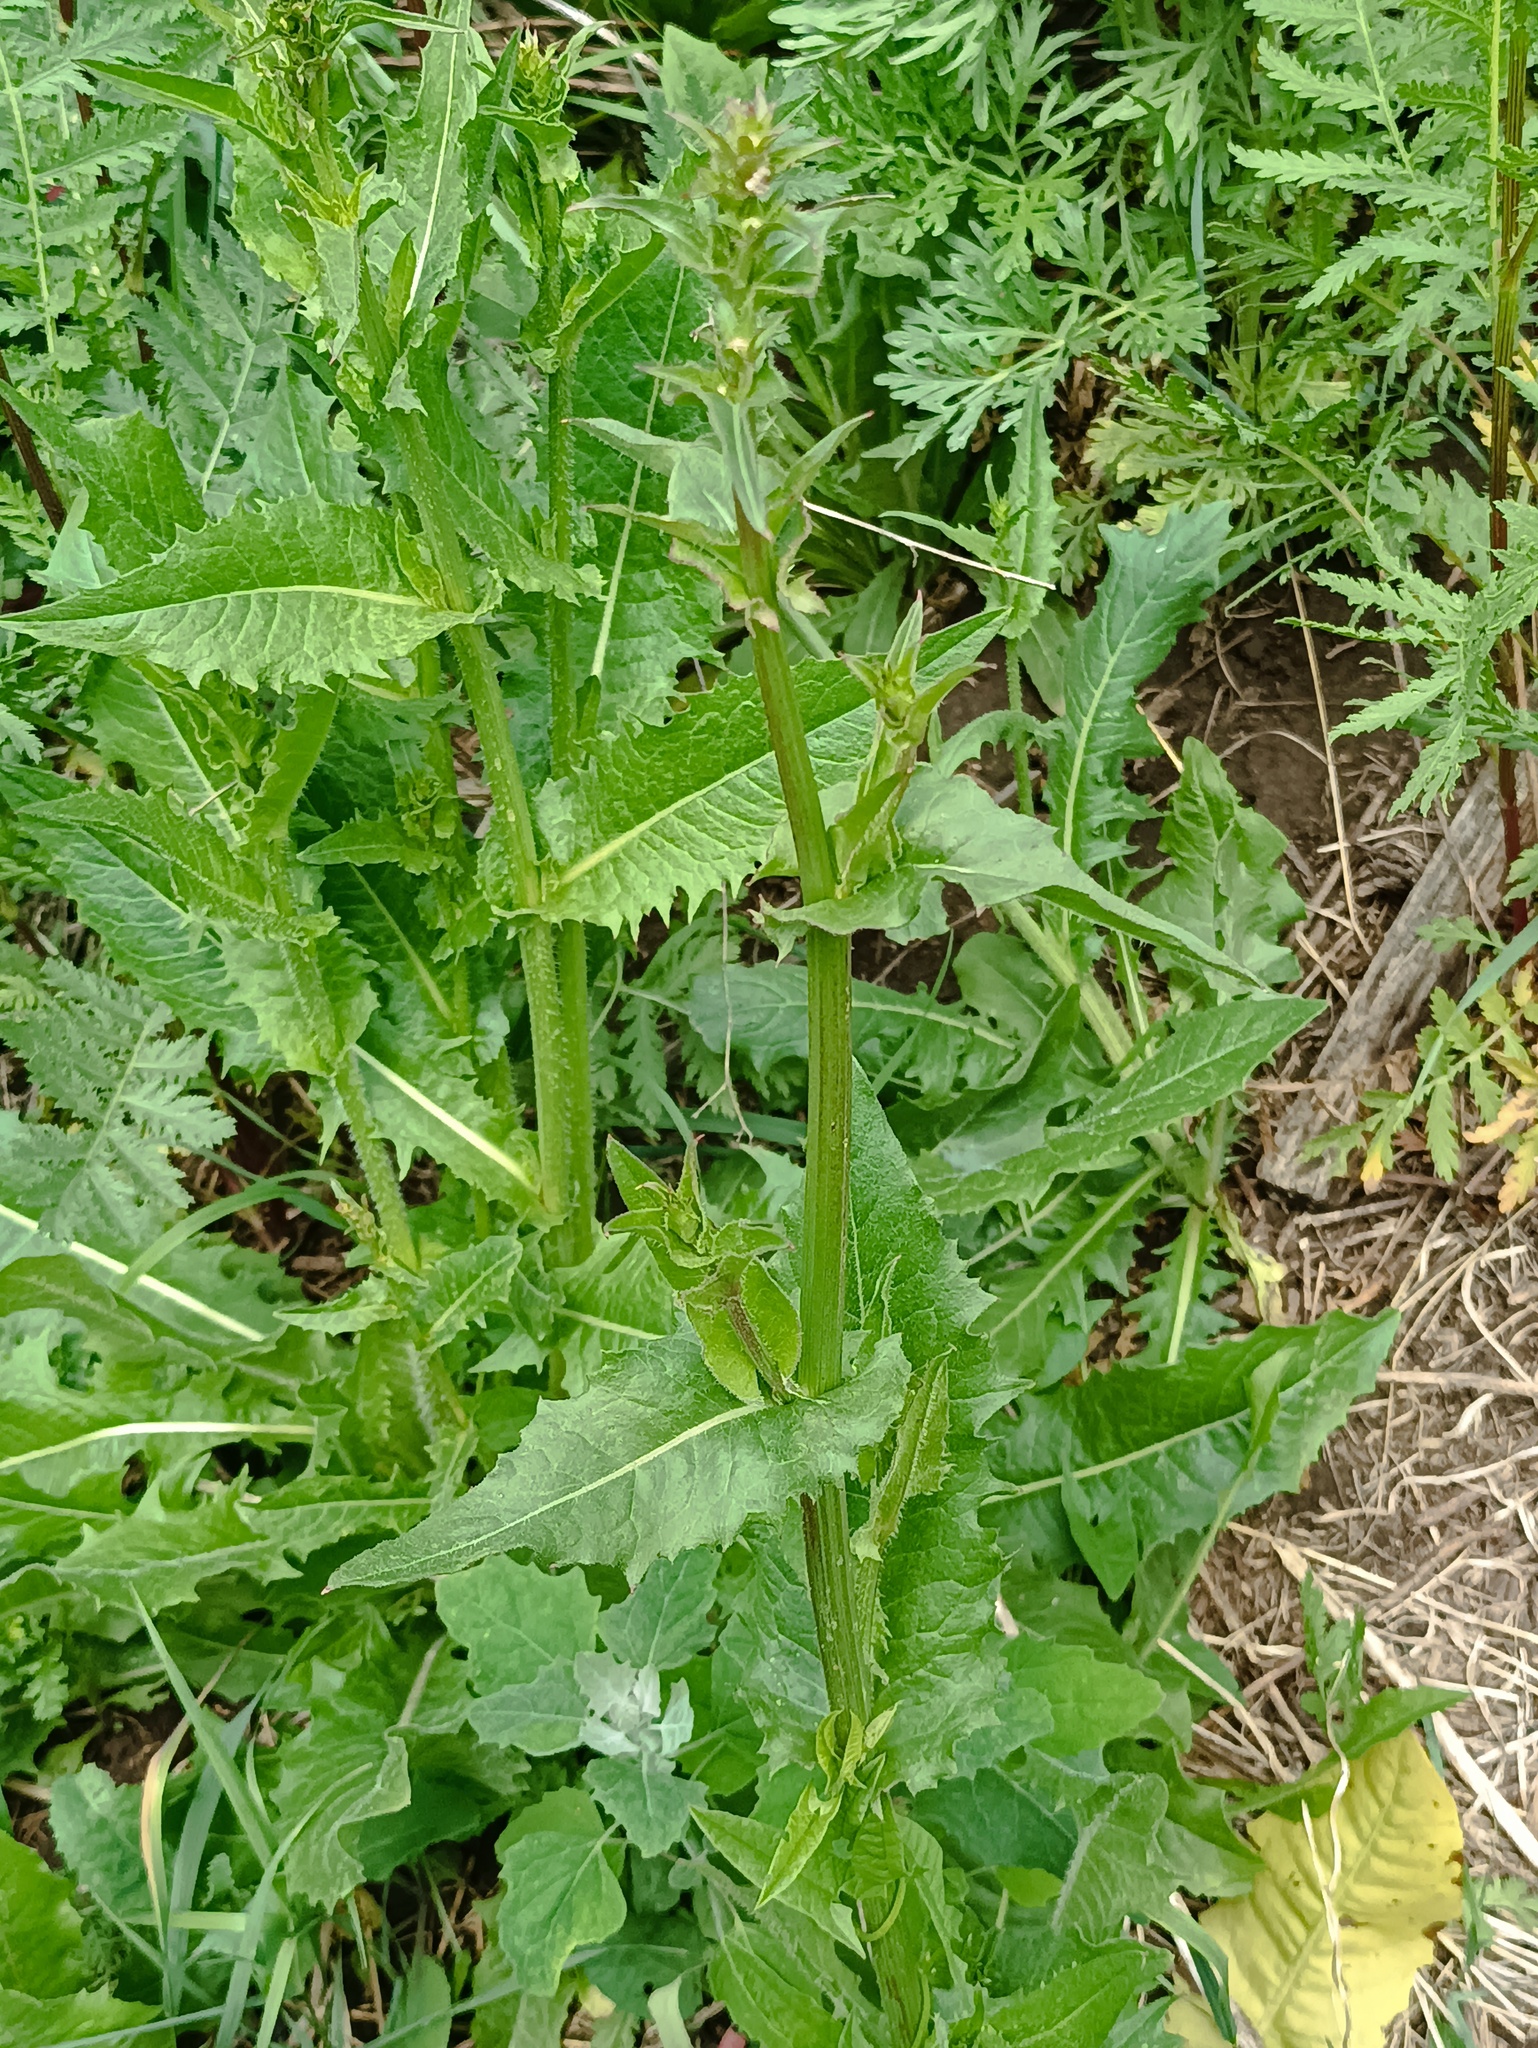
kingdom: Plantae
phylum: Tracheophyta
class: Magnoliopsida
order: Asterales
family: Asteraceae
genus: Cichorium
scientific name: Cichorium intybus
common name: Chicory
